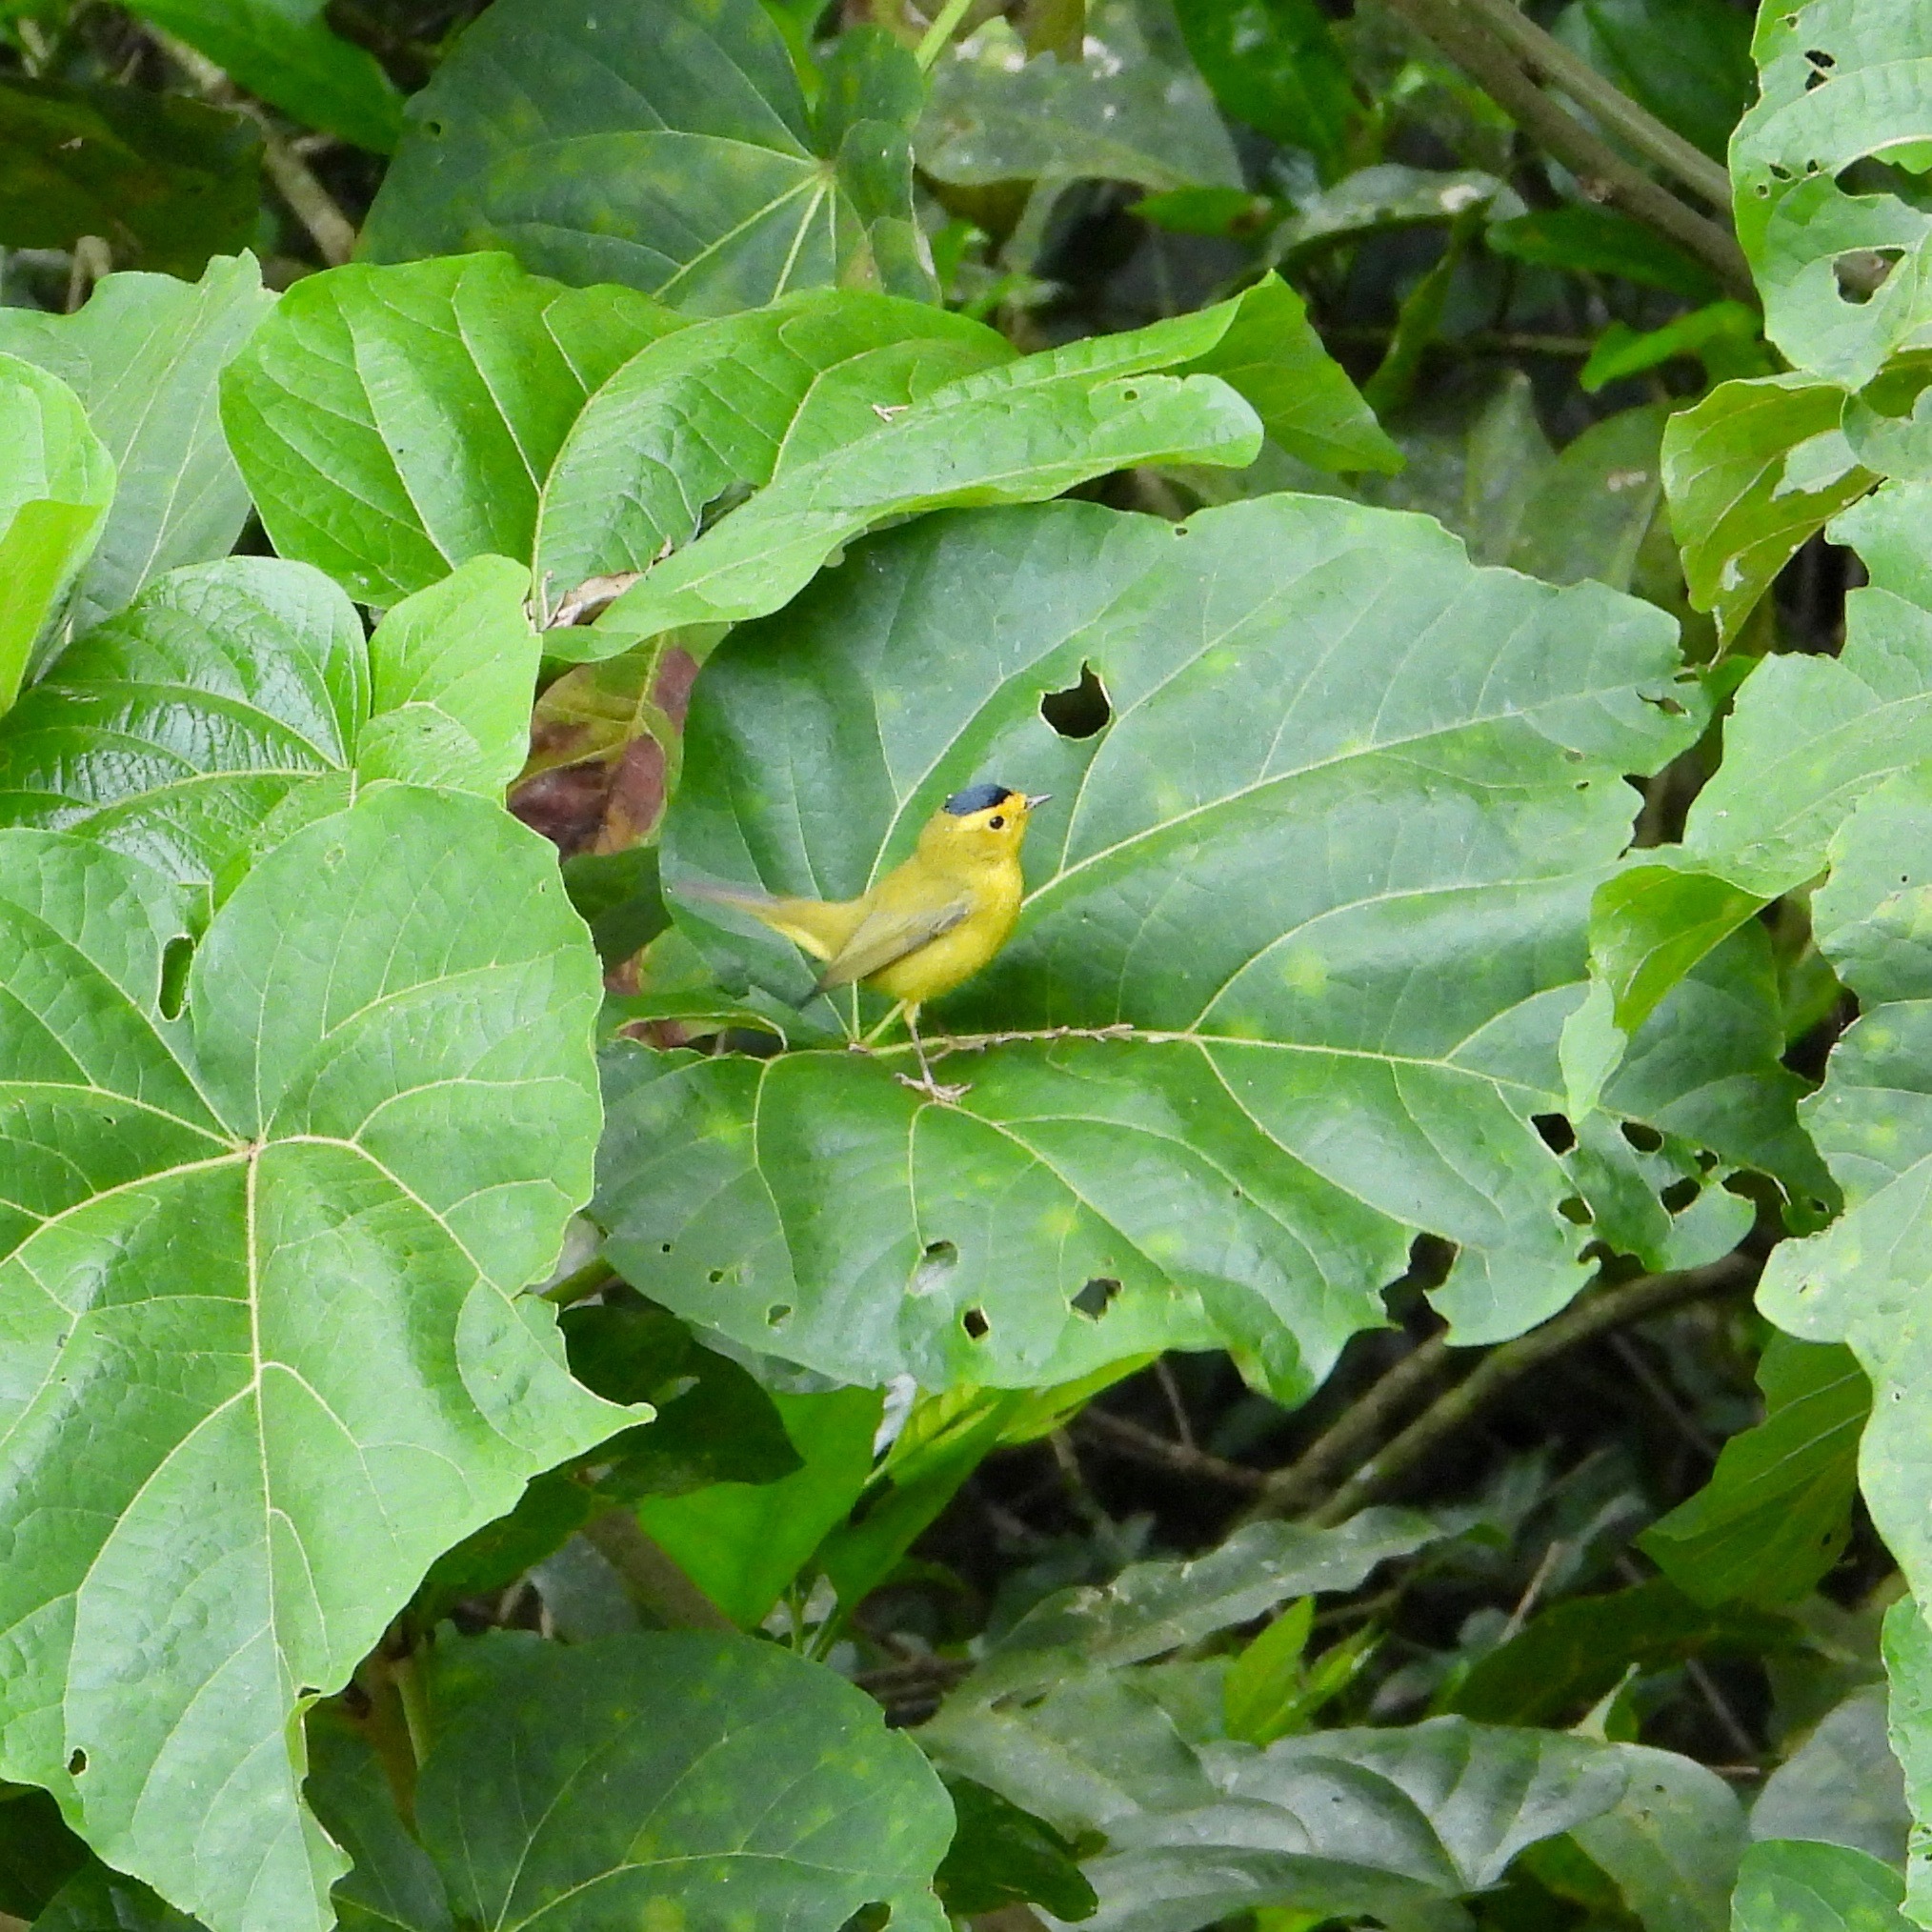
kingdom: Animalia
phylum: Chordata
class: Aves
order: Passeriformes
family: Parulidae
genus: Cardellina
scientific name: Cardellina pusilla
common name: Wilson's warbler
